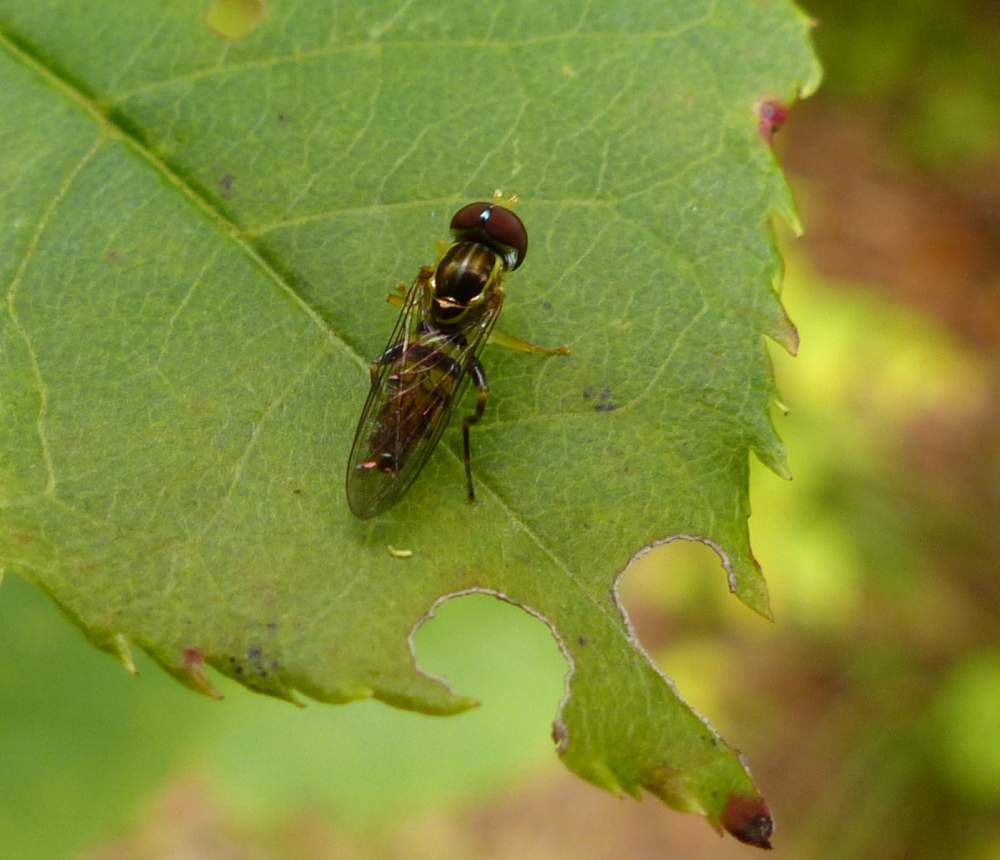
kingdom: Animalia
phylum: Arthropoda
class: Insecta
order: Diptera
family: Syrphidae
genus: Toxomerus
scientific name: Toxomerus geminatus
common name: Eastern calligrapher
